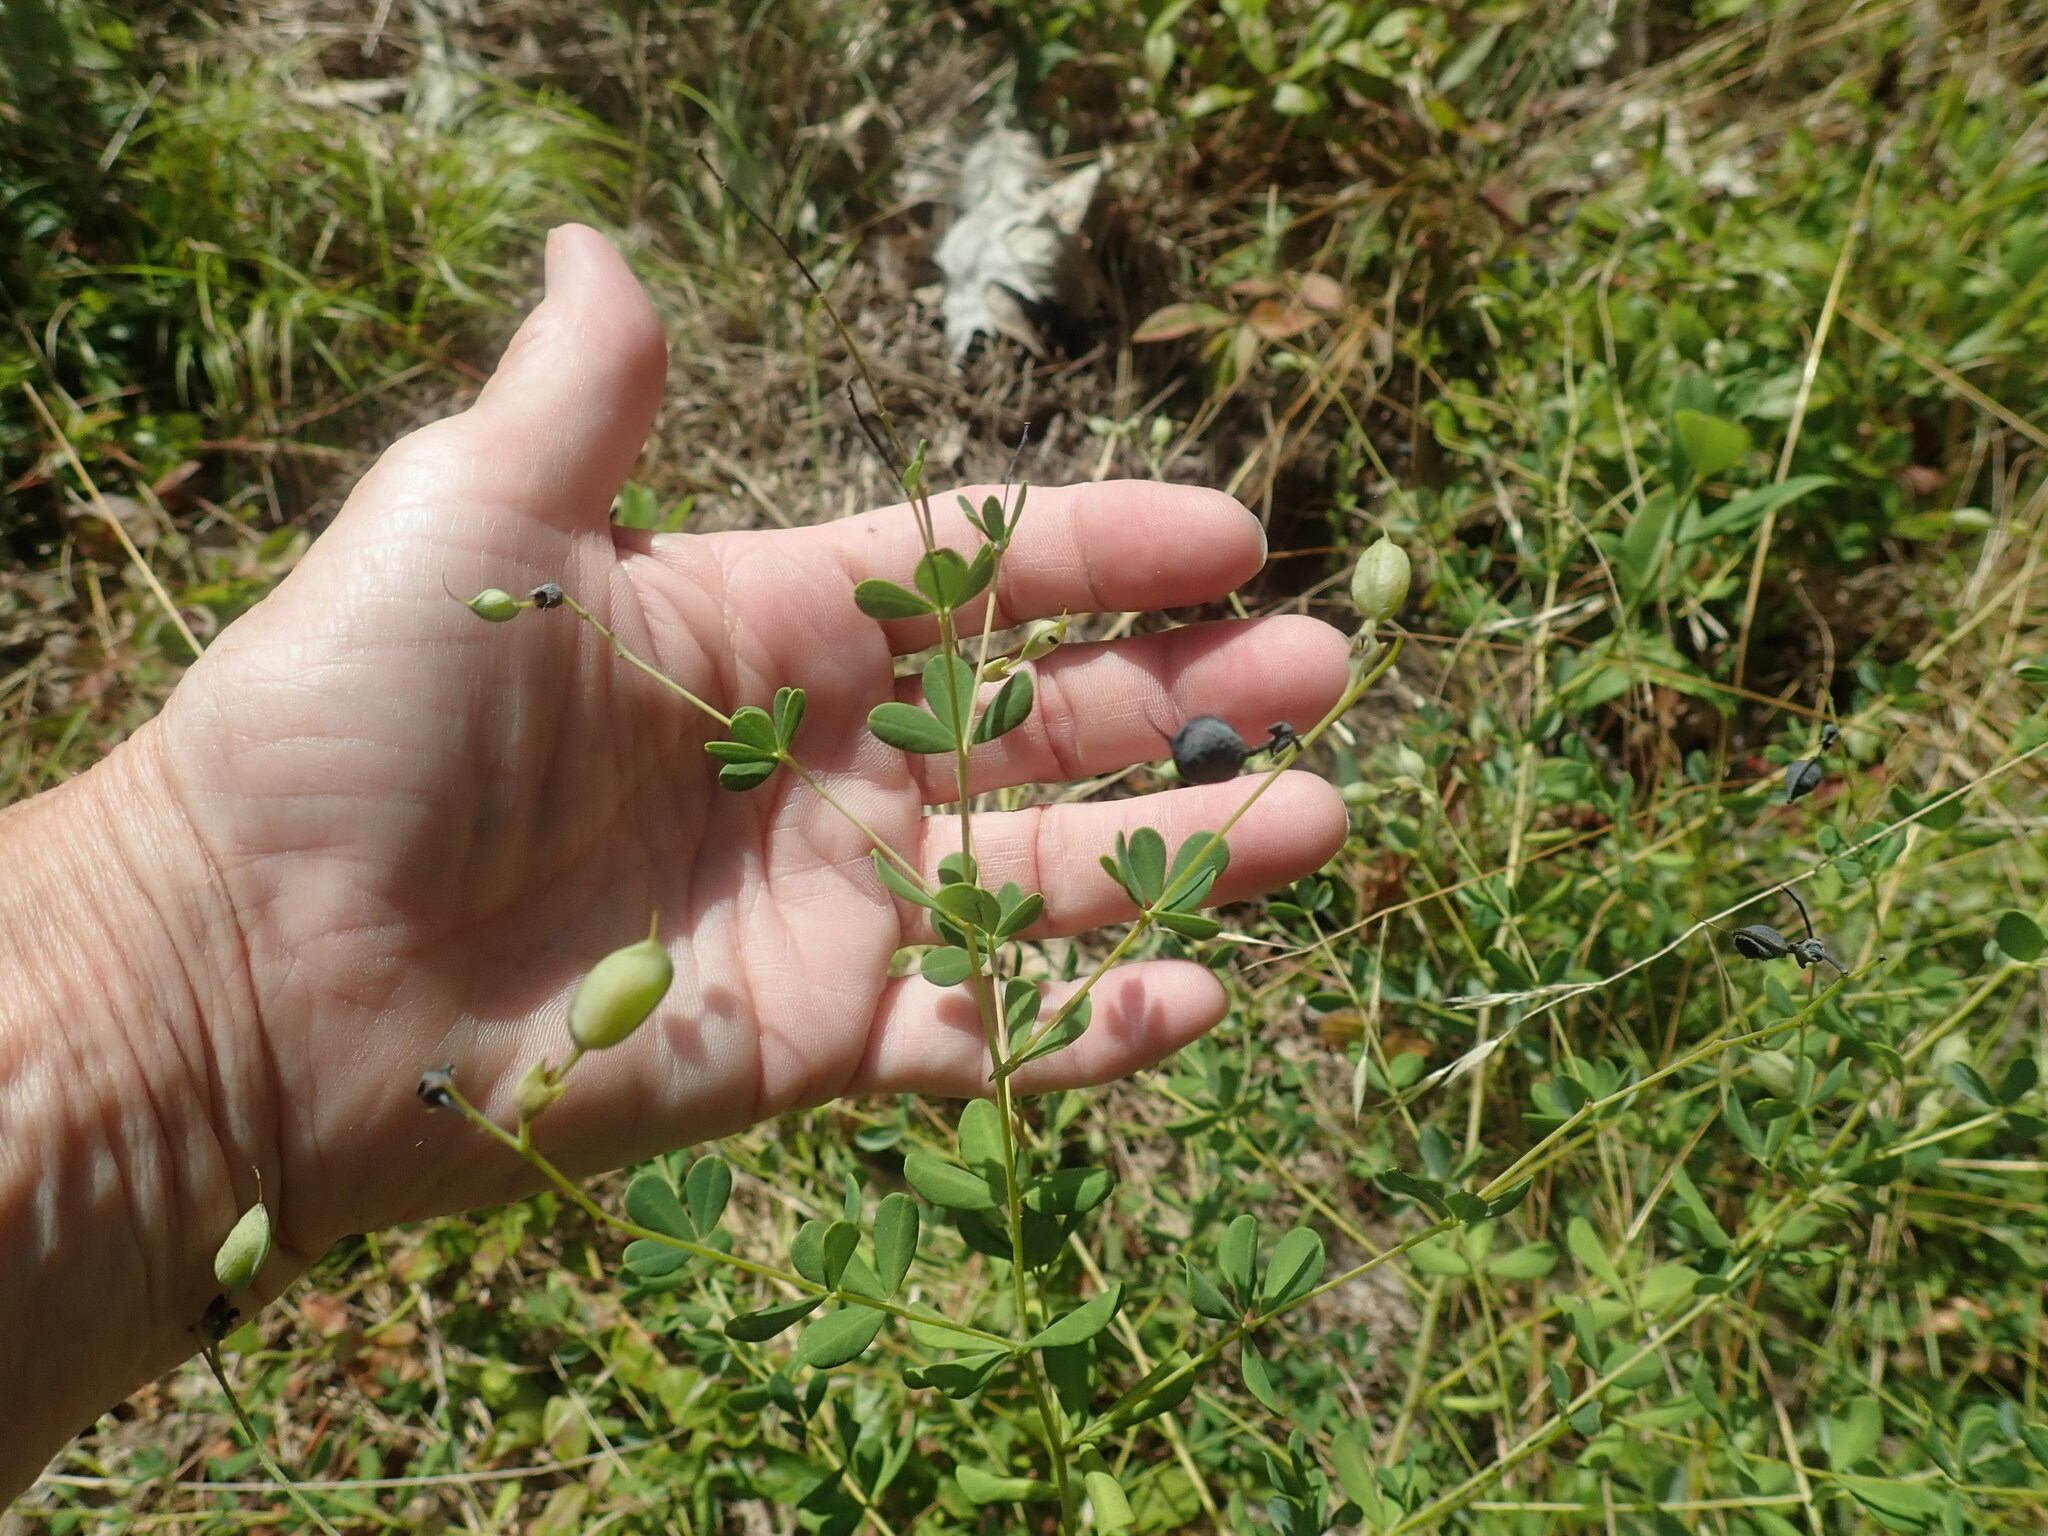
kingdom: Plantae
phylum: Tracheophyta
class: Magnoliopsida
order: Fabales
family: Fabaceae
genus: Baptisia
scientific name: Baptisia tinctoria
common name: Wild indigo
